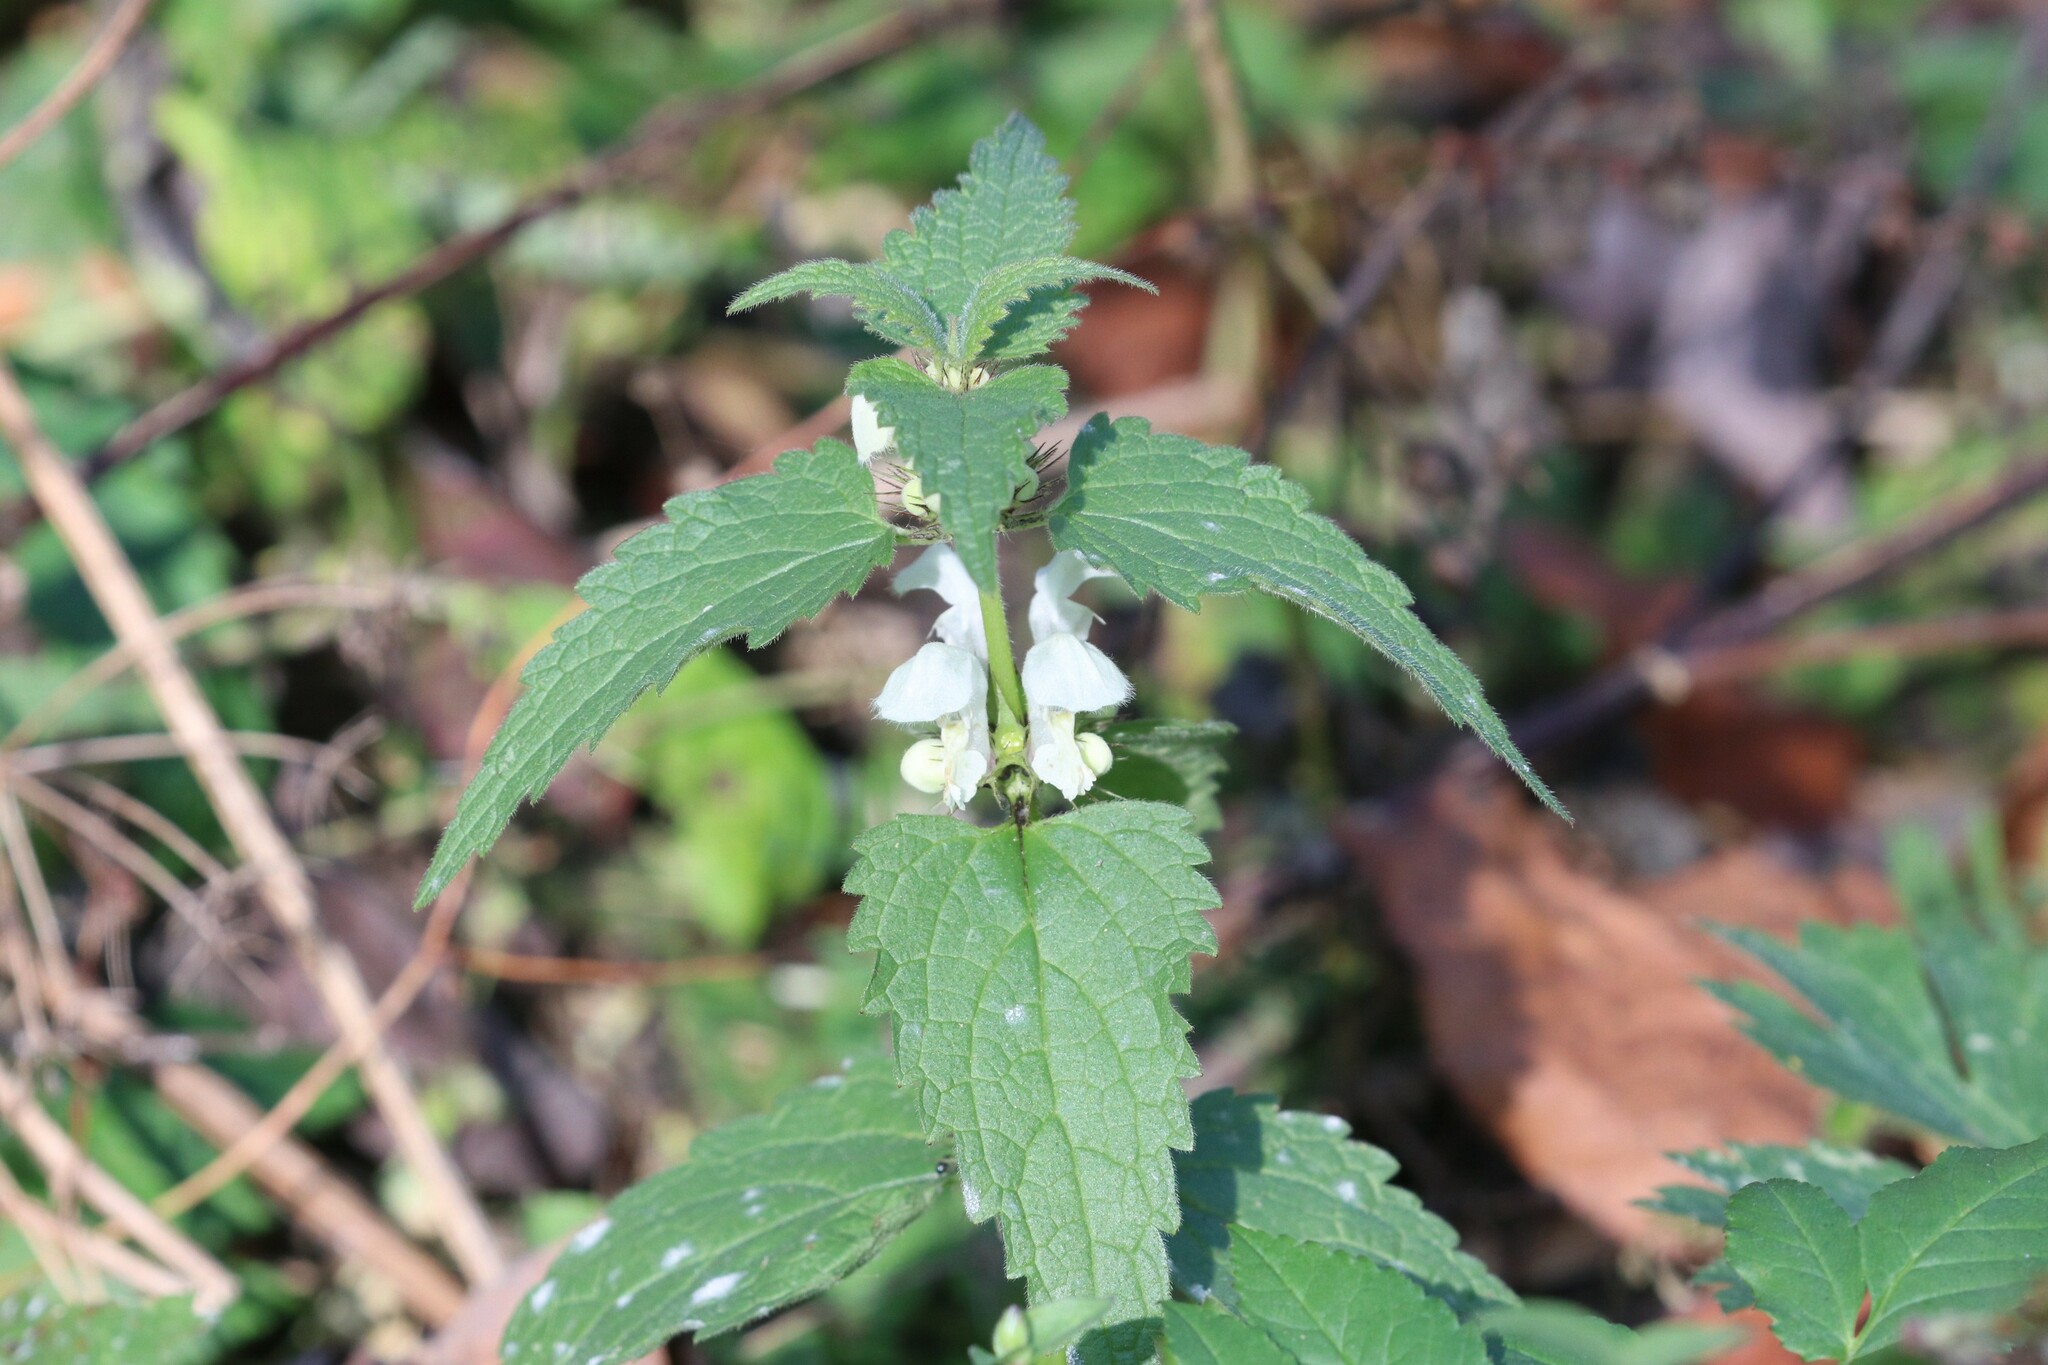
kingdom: Plantae
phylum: Tracheophyta
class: Magnoliopsida
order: Lamiales
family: Lamiaceae
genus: Lamium
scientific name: Lamium album
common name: White dead-nettle
